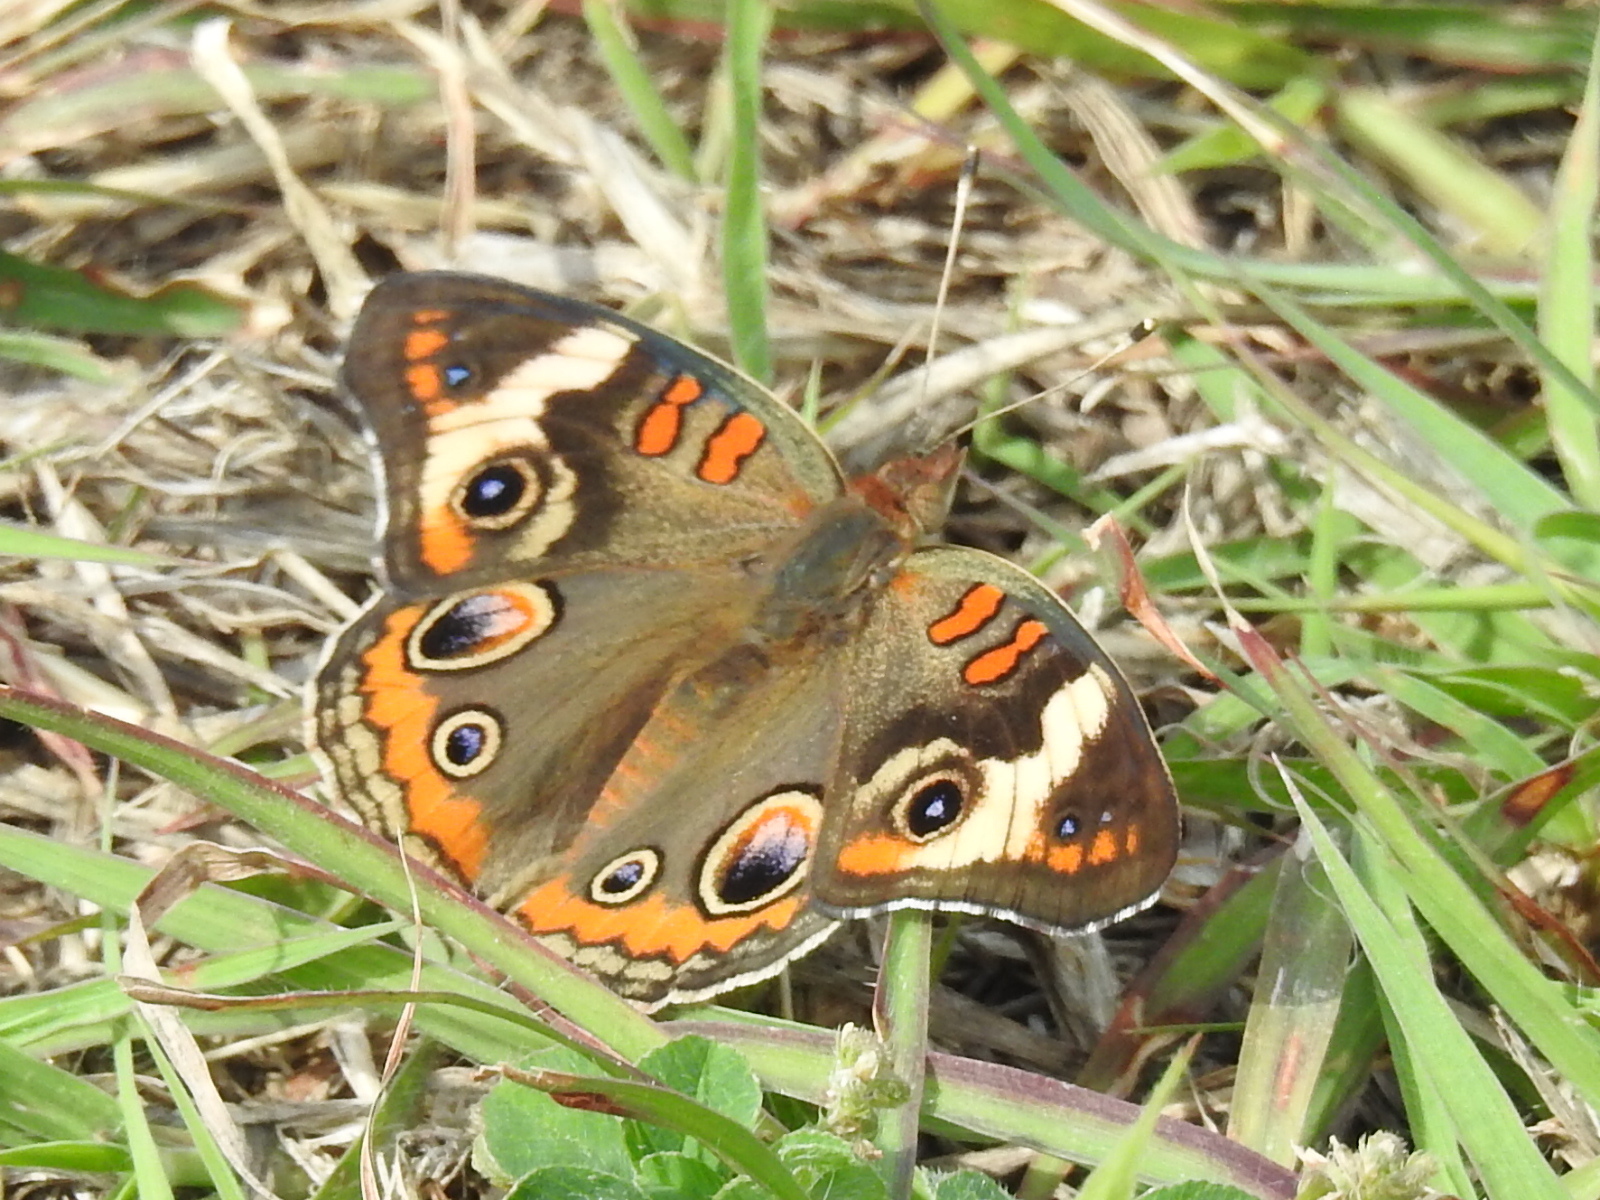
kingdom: Animalia
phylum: Arthropoda
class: Insecta
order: Lepidoptera
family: Nymphalidae
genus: Junonia
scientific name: Junonia coenia
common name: Common buckeye
